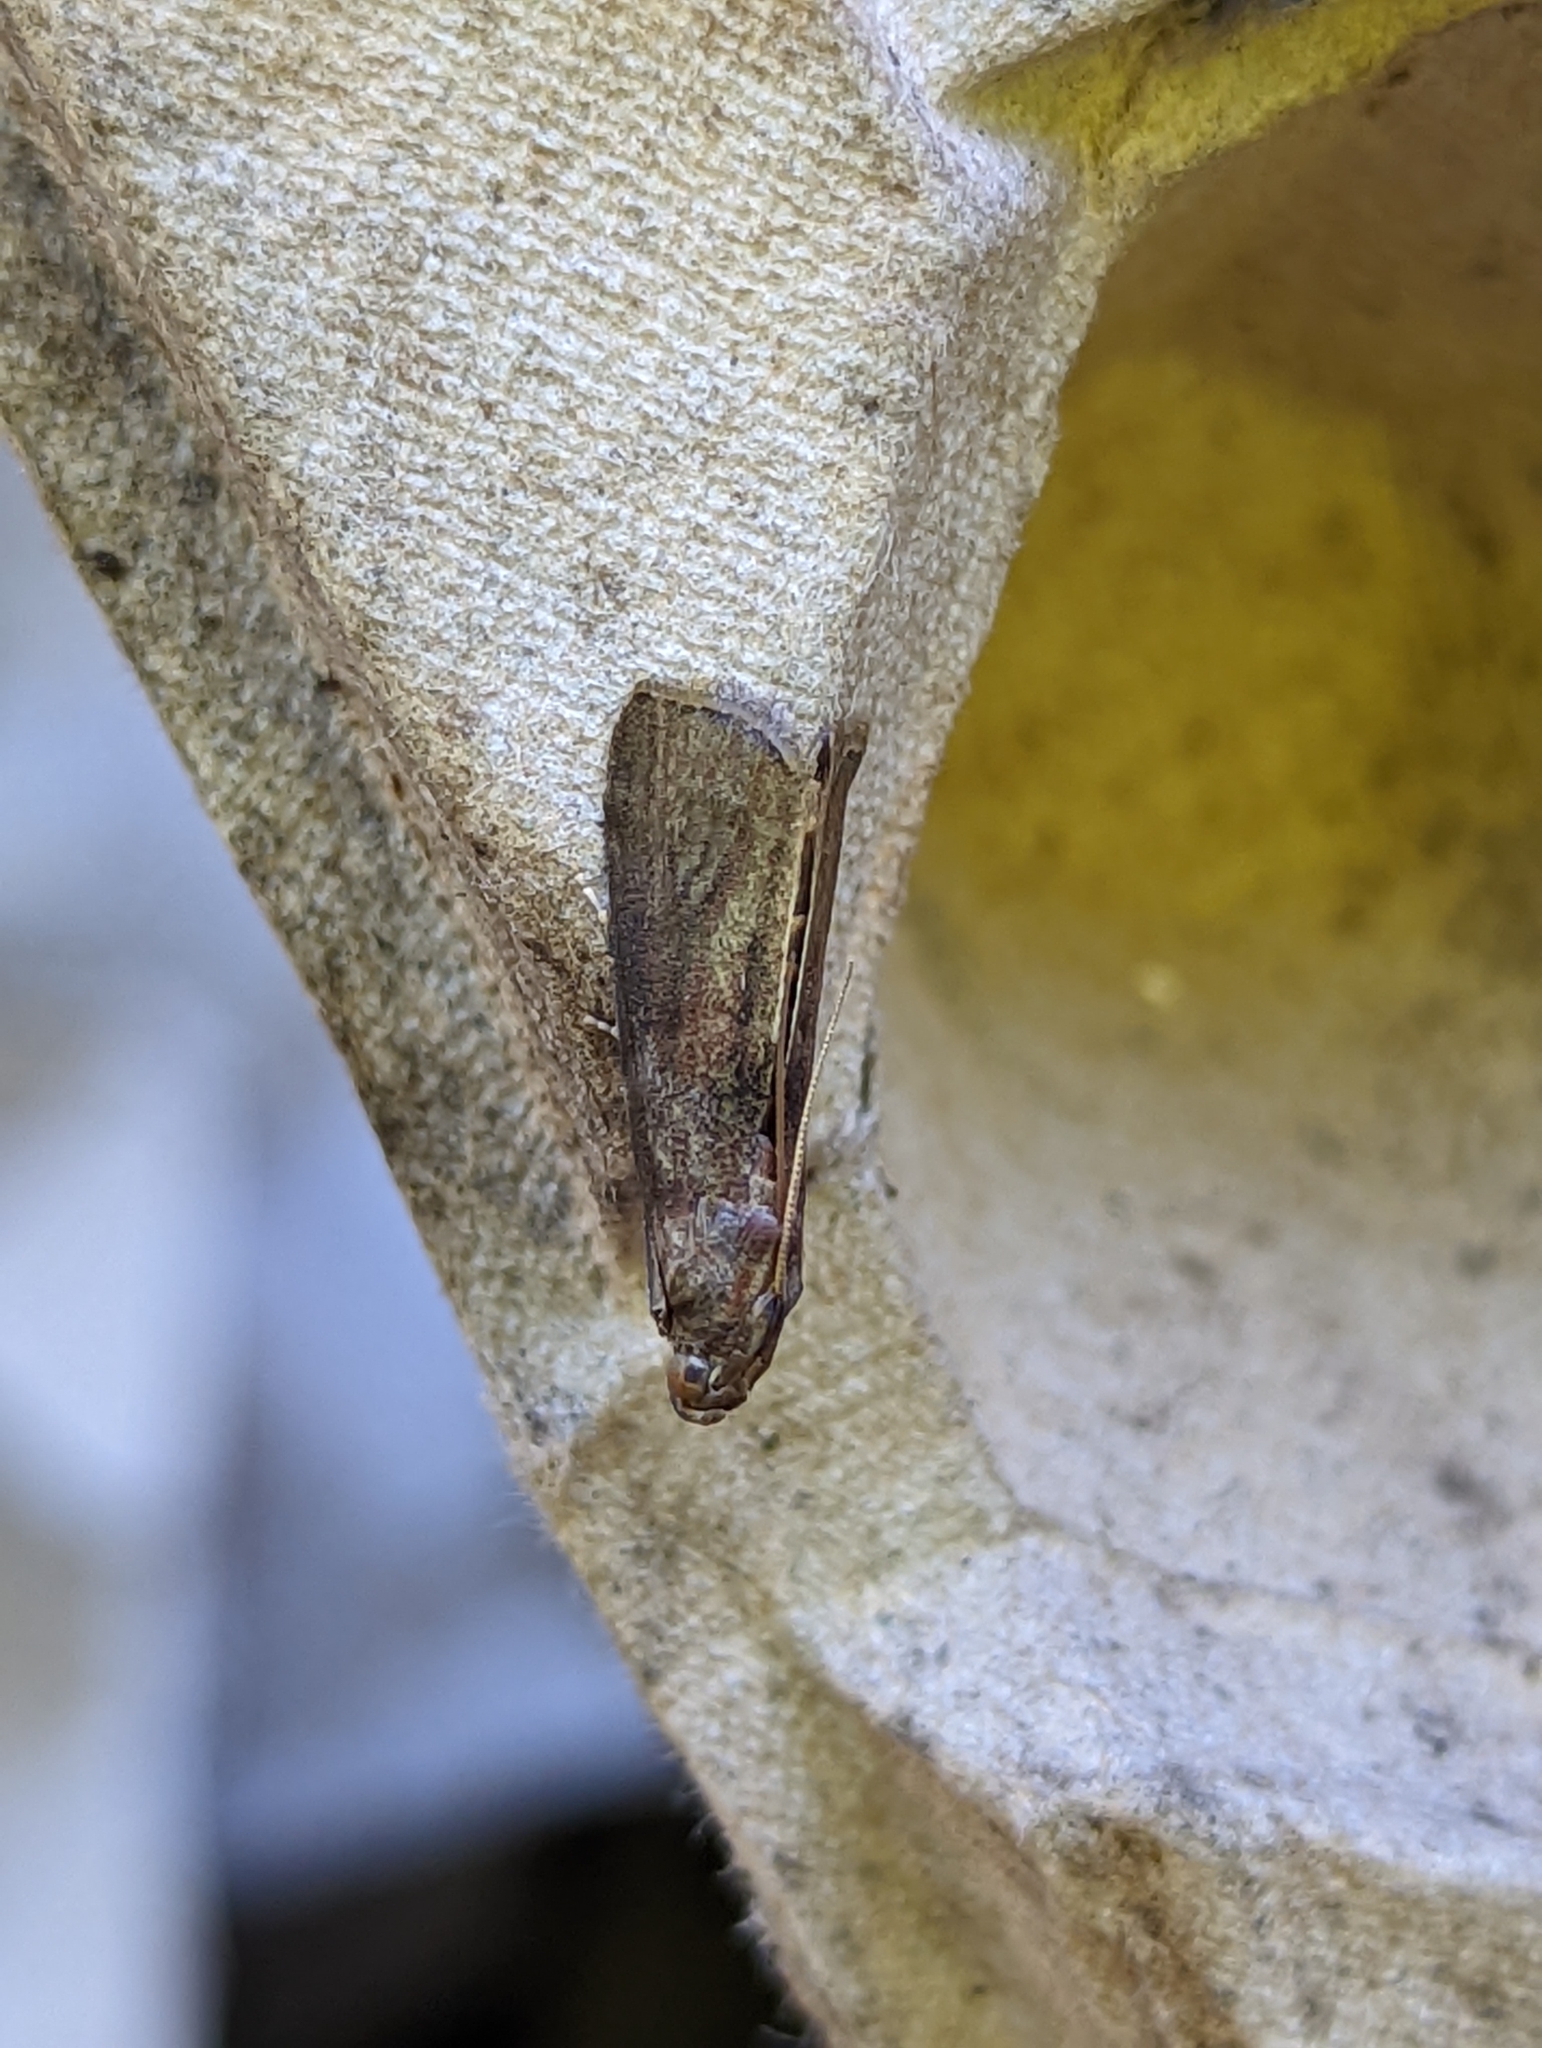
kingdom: Animalia
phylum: Arthropoda
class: Insecta
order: Lepidoptera
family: Pyralidae
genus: Phycita
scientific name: Phycita roborella
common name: Dotted oak knot-horn
